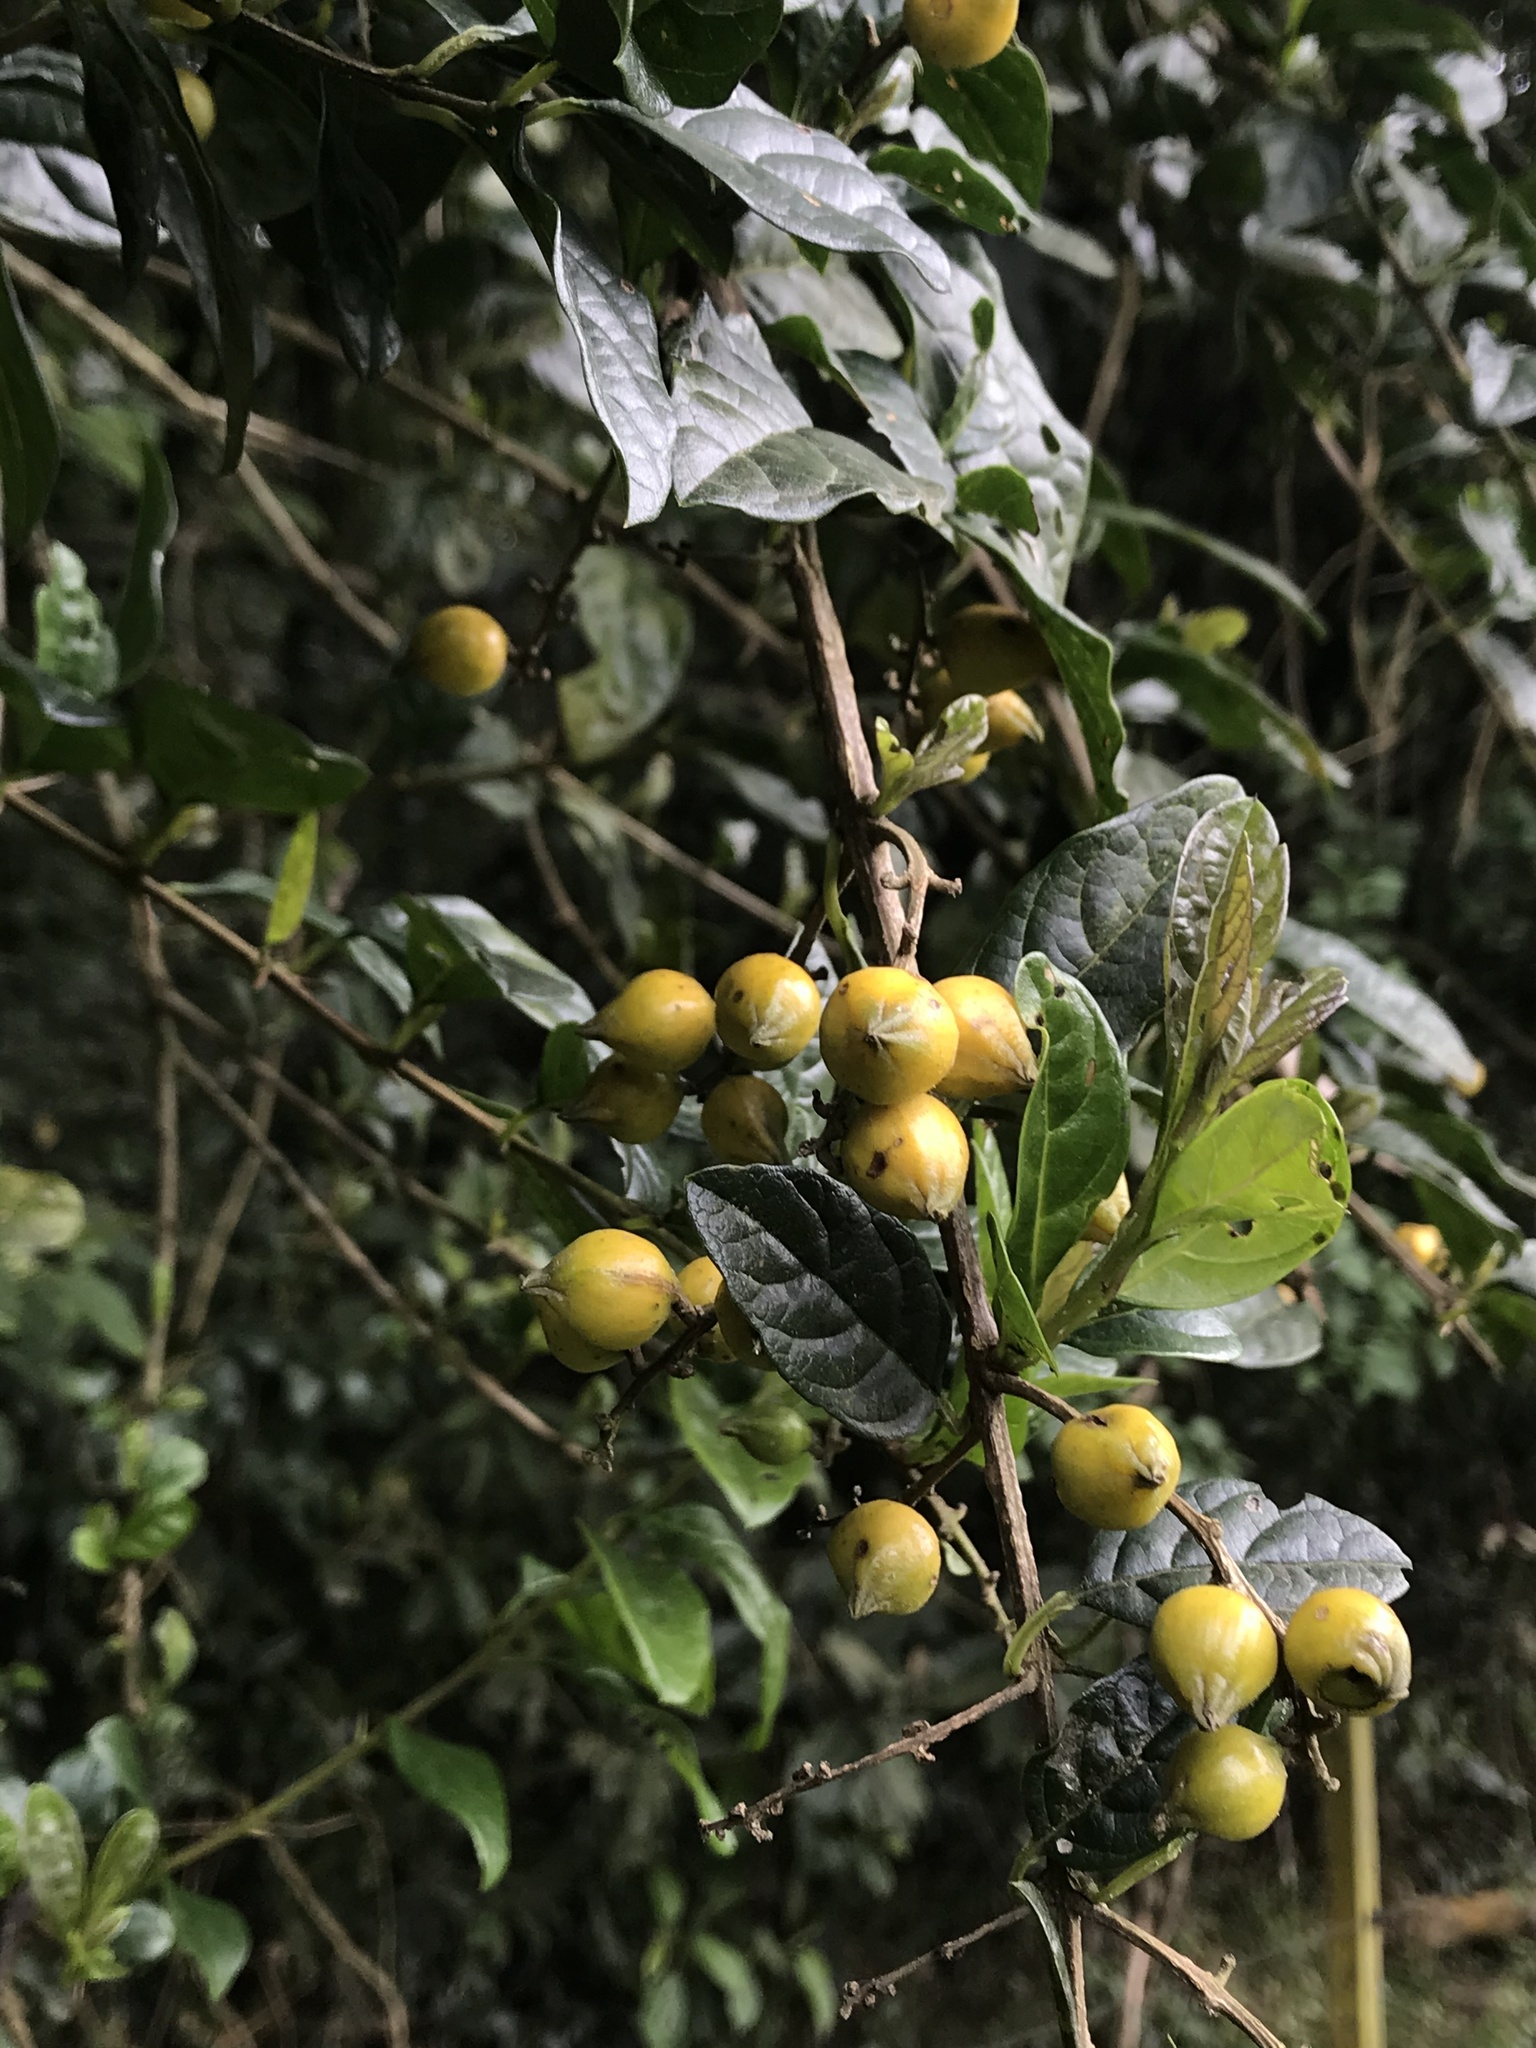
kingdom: Plantae
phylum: Tracheophyta
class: Magnoliopsida
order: Lamiales
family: Verbenaceae
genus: Duranta
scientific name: Duranta mutisii
